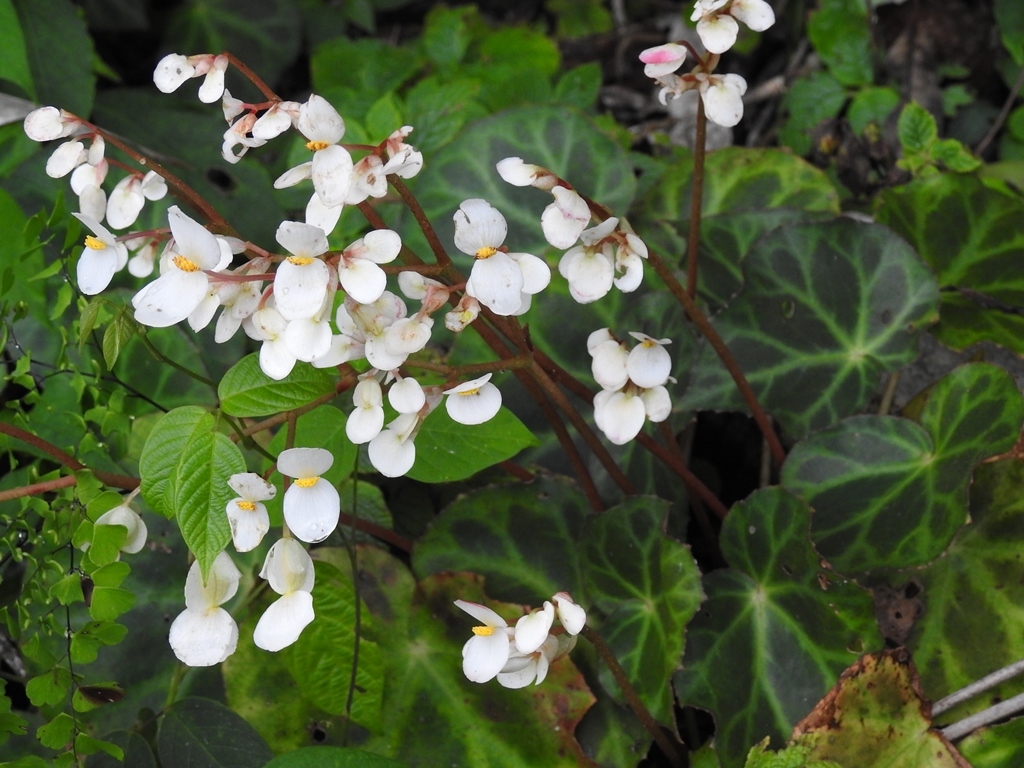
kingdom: Plantae
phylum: Tracheophyta
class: Magnoliopsida
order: Cucurbitales
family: Begoniaceae
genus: Begonia
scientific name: Begonia plebeja
